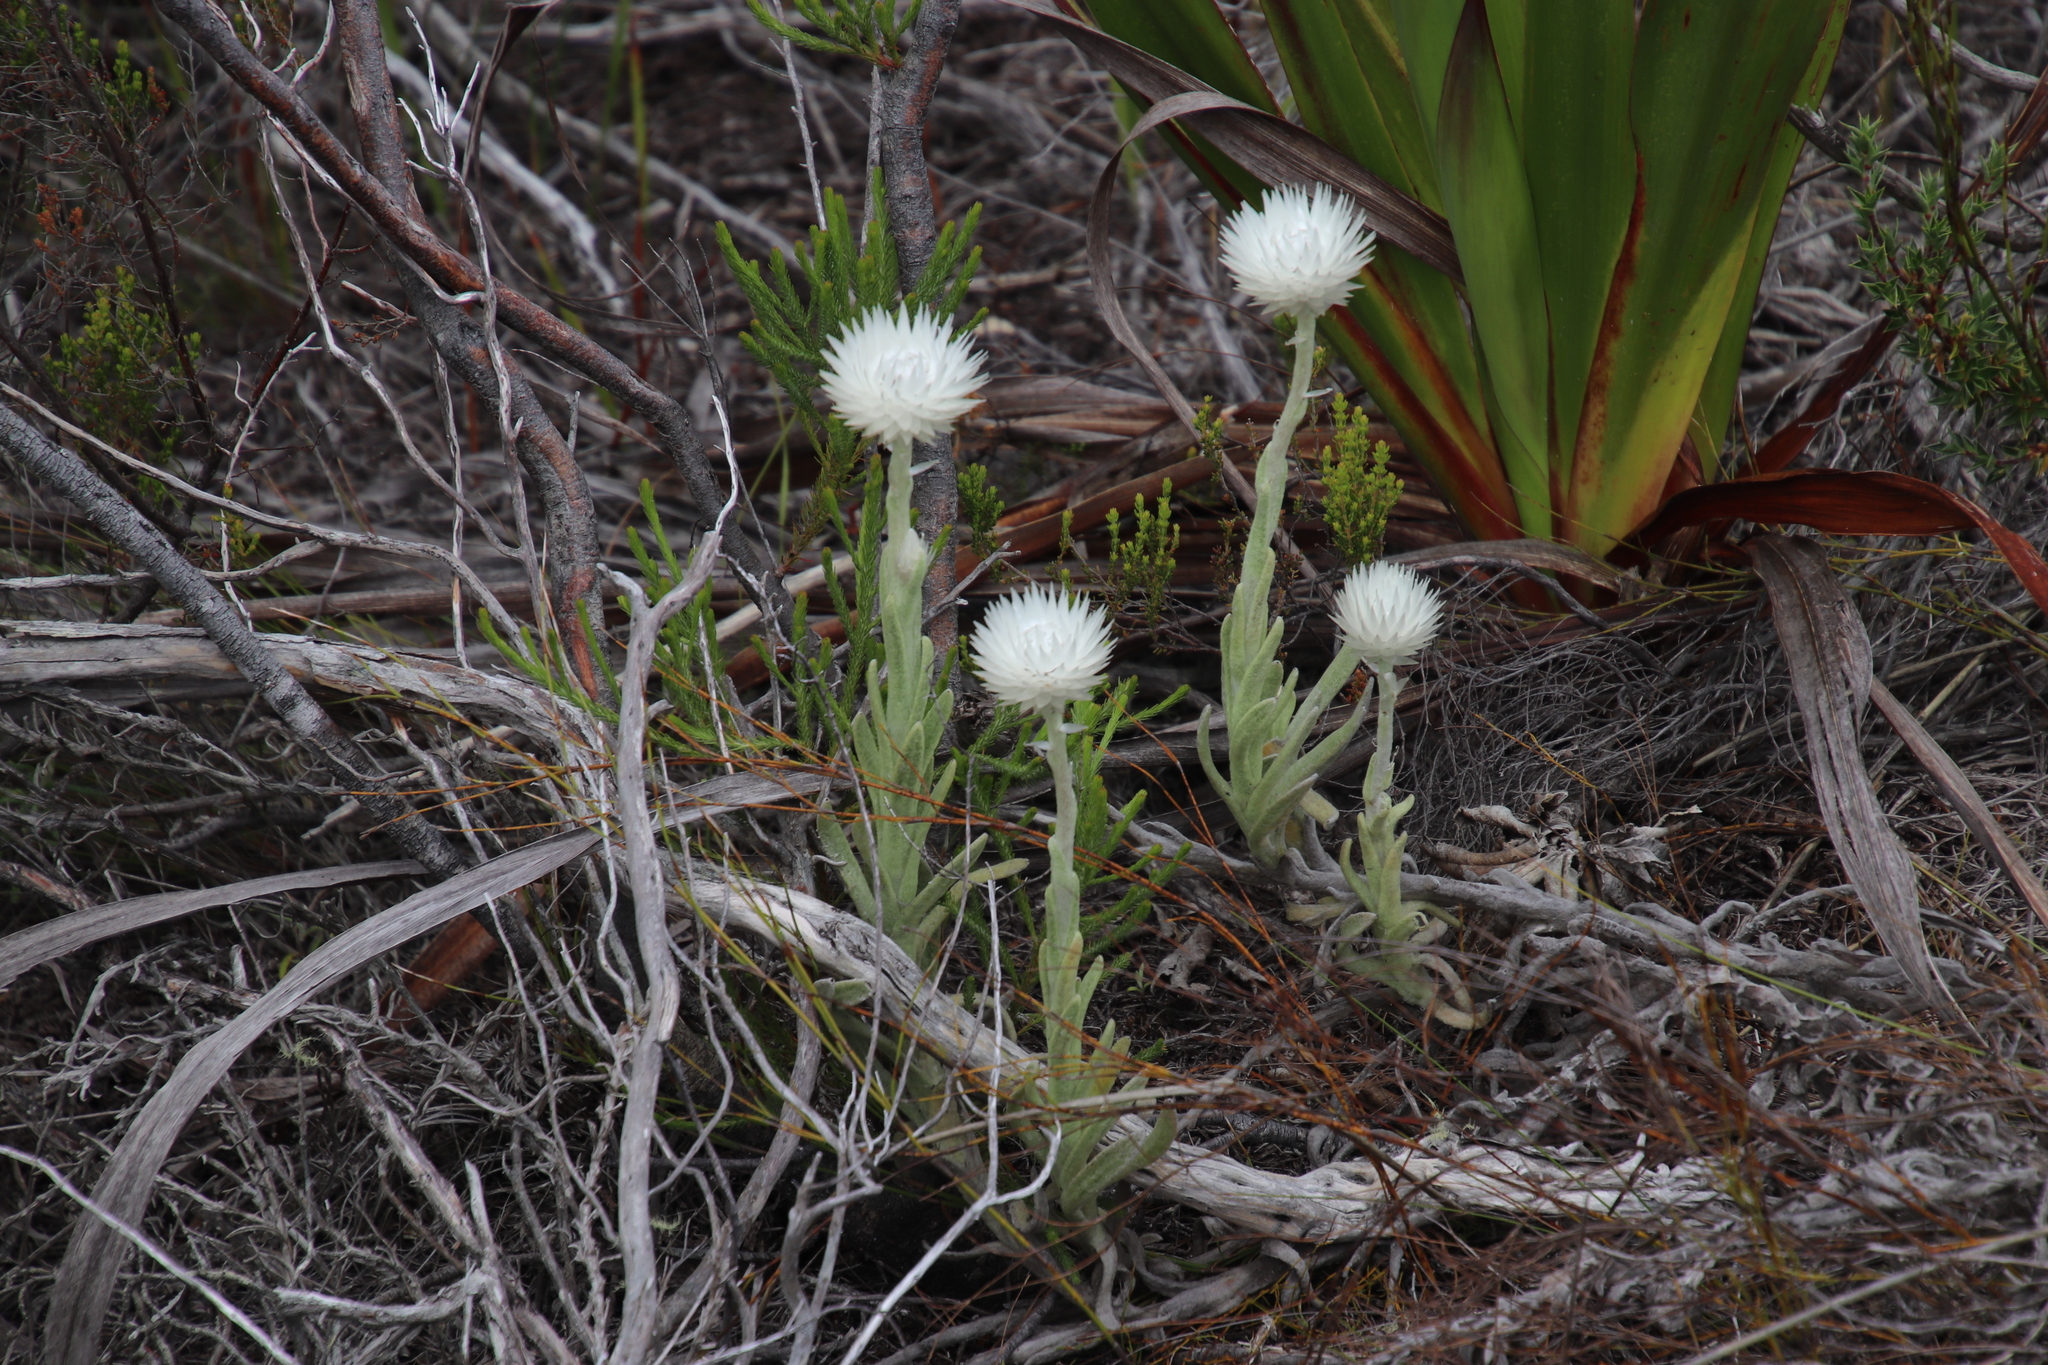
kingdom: Plantae
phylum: Tracheophyta
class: Magnoliopsida
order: Asterales
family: Asteraceae
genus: Syncarpha
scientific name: Syncarpha vestita
